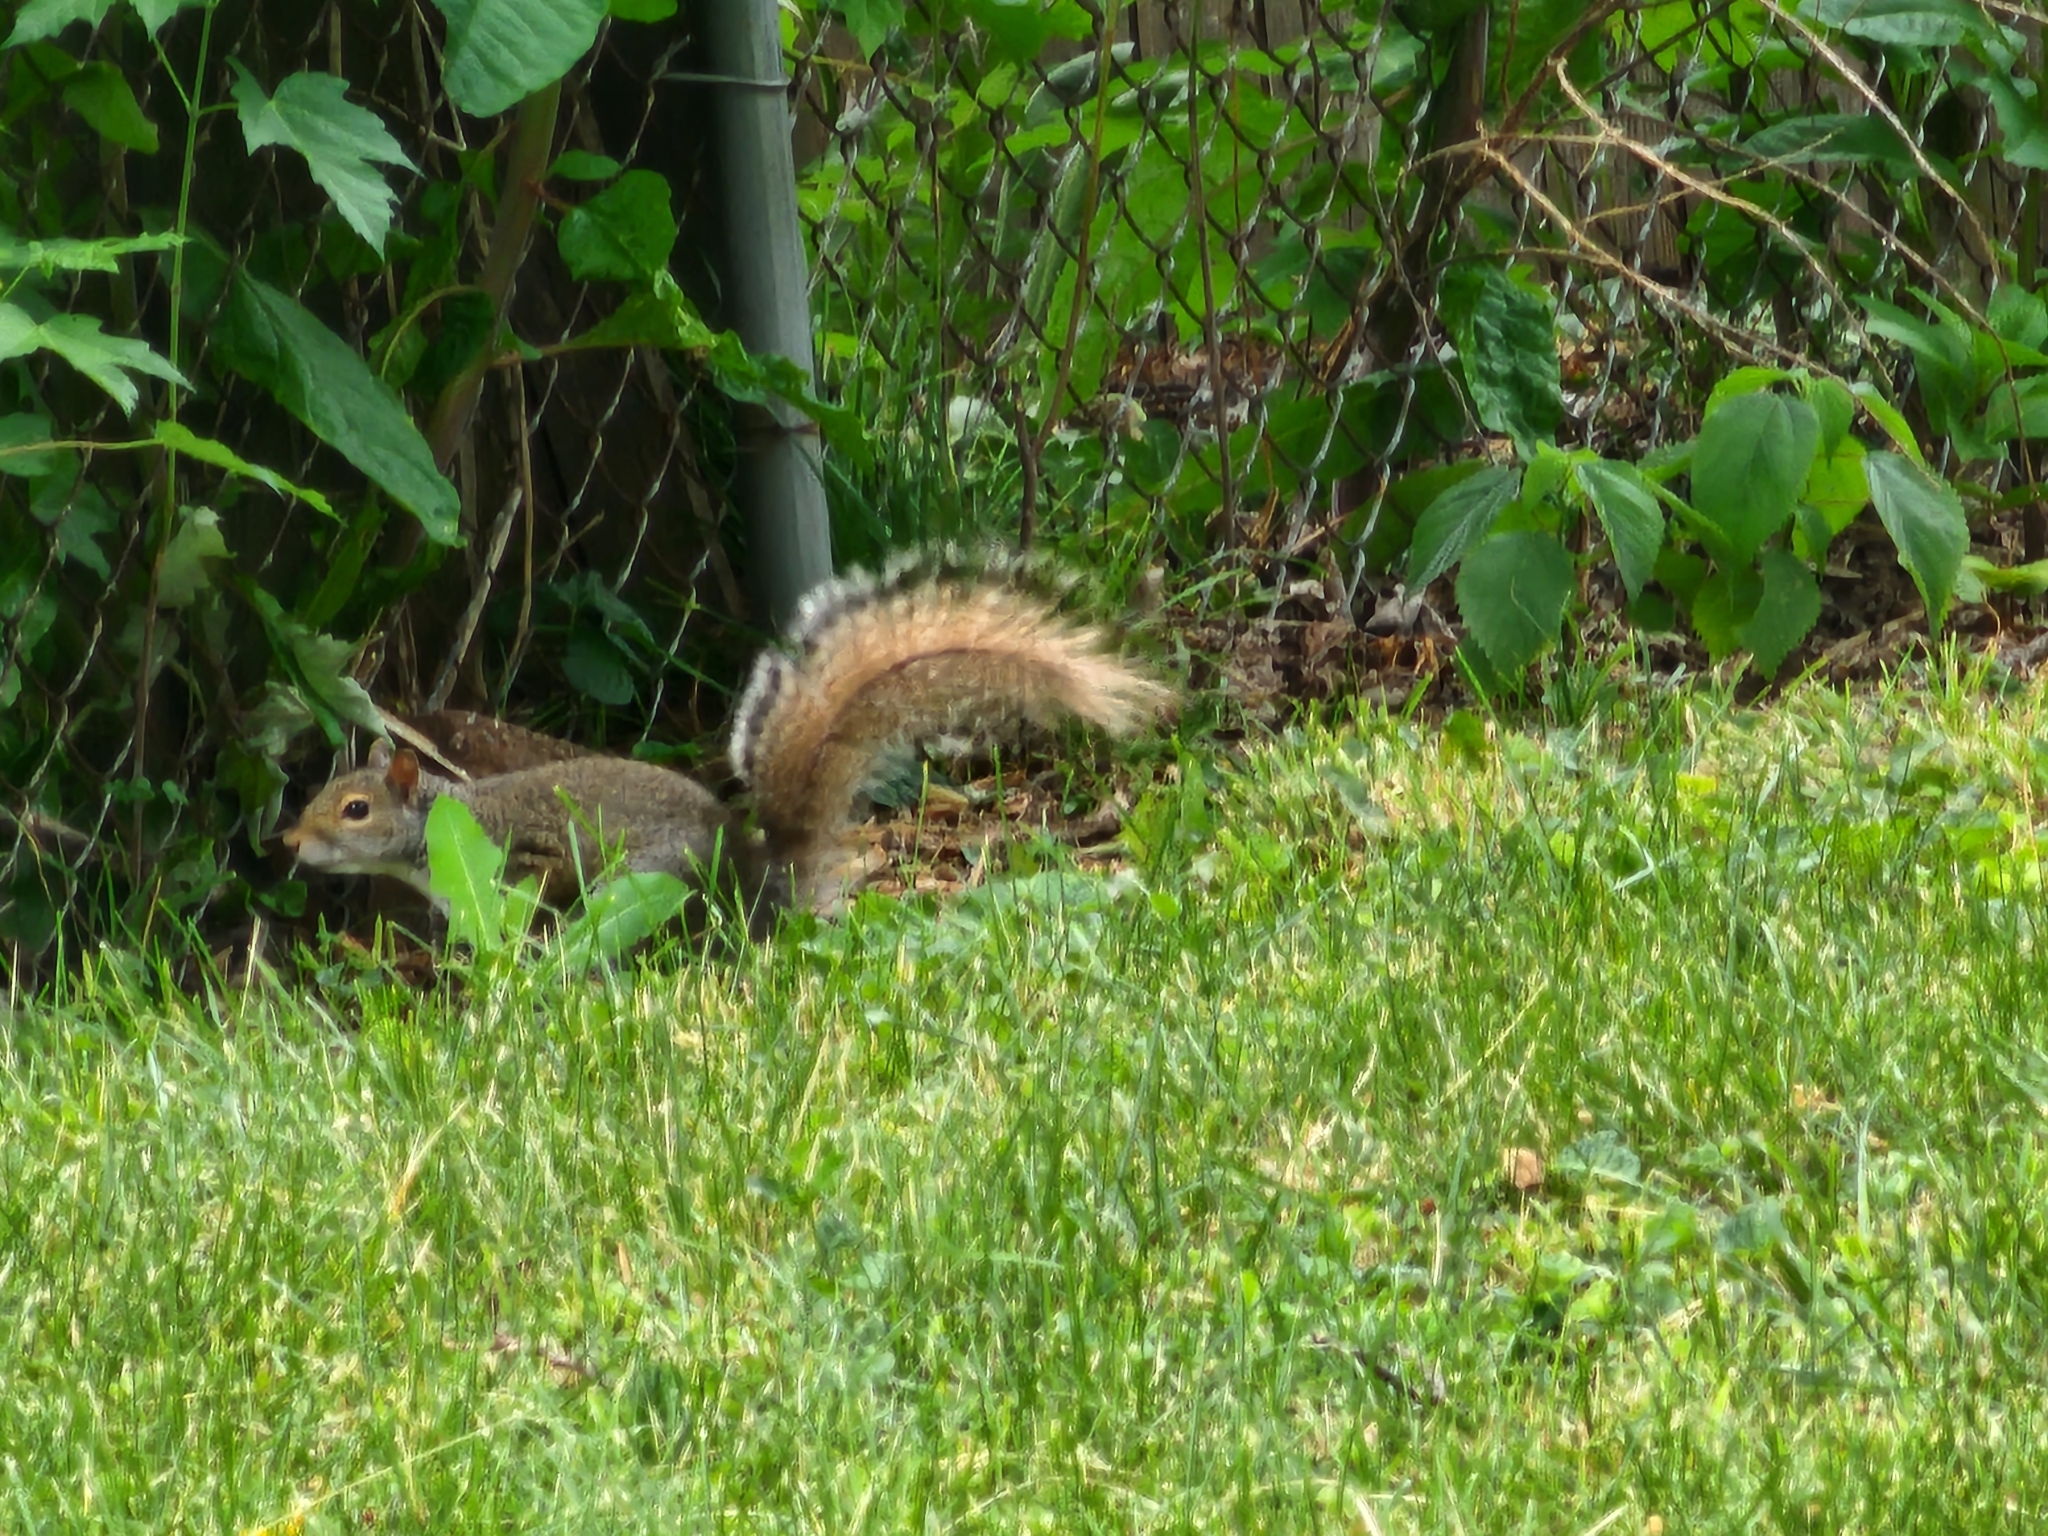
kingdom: Animalia
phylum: Chordata
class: Mammalia
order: Rodentia
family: Sciuridae
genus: Sciurus
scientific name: Sciurus carolinensis
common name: Eastern gray squirrel
